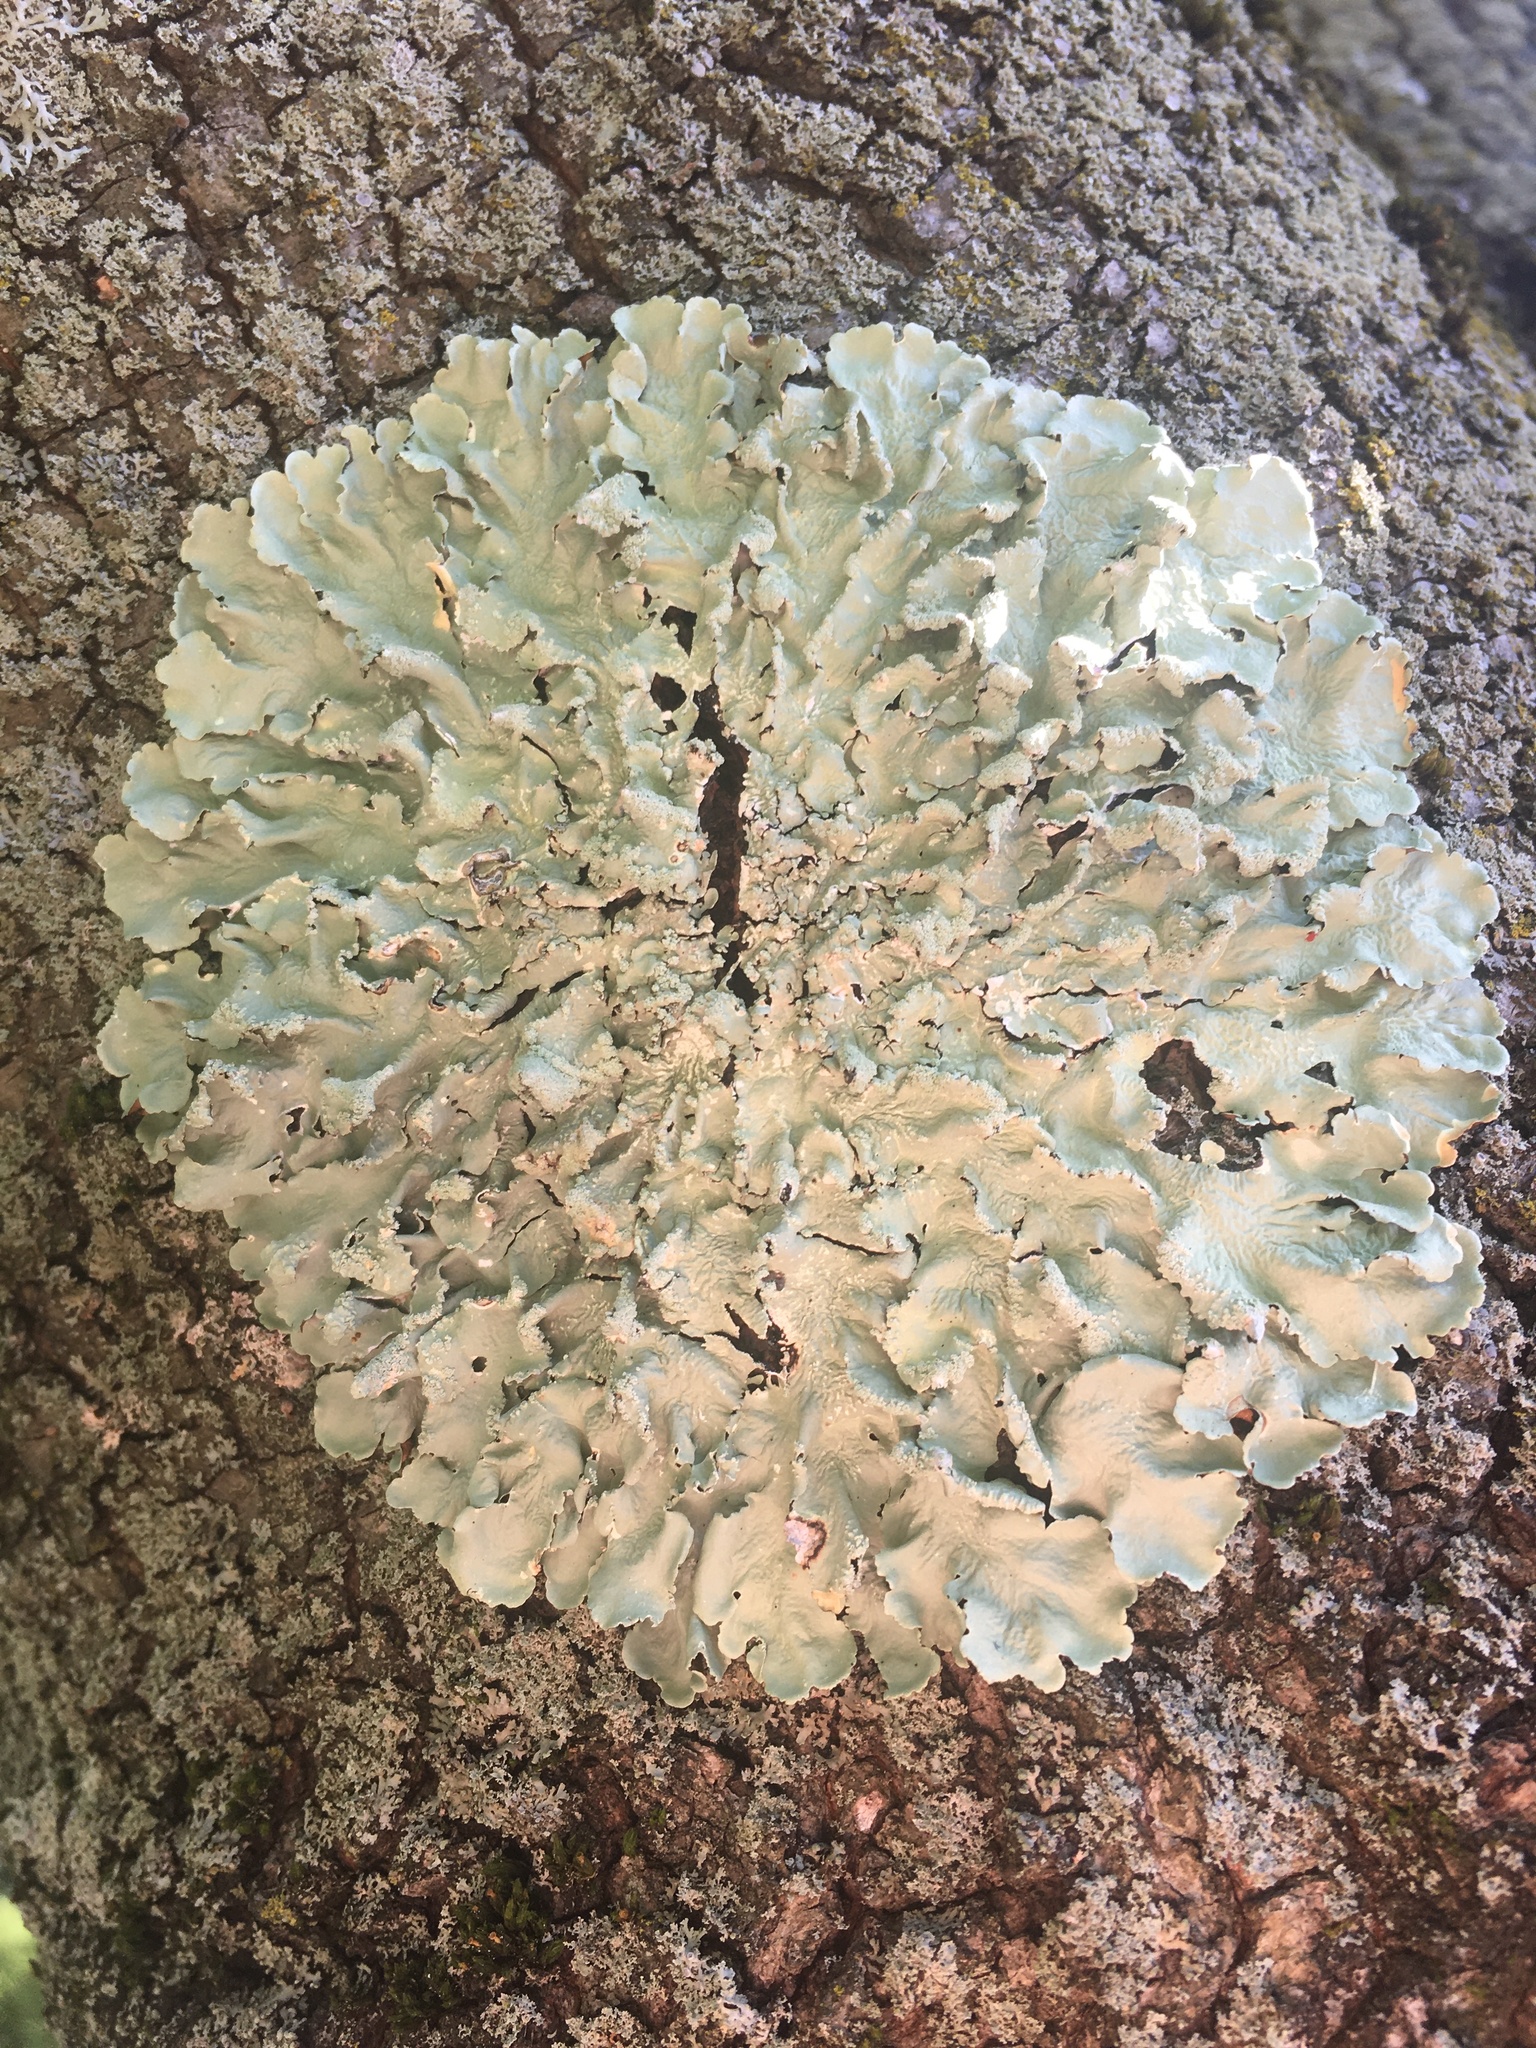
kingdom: Fungi
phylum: Ascomycota
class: Lecanoromycetes
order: Lecanorales
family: Parmeliaceae
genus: Flavoparmelia
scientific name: Flavoparmelia caperata
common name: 40-mile per hour lichen
